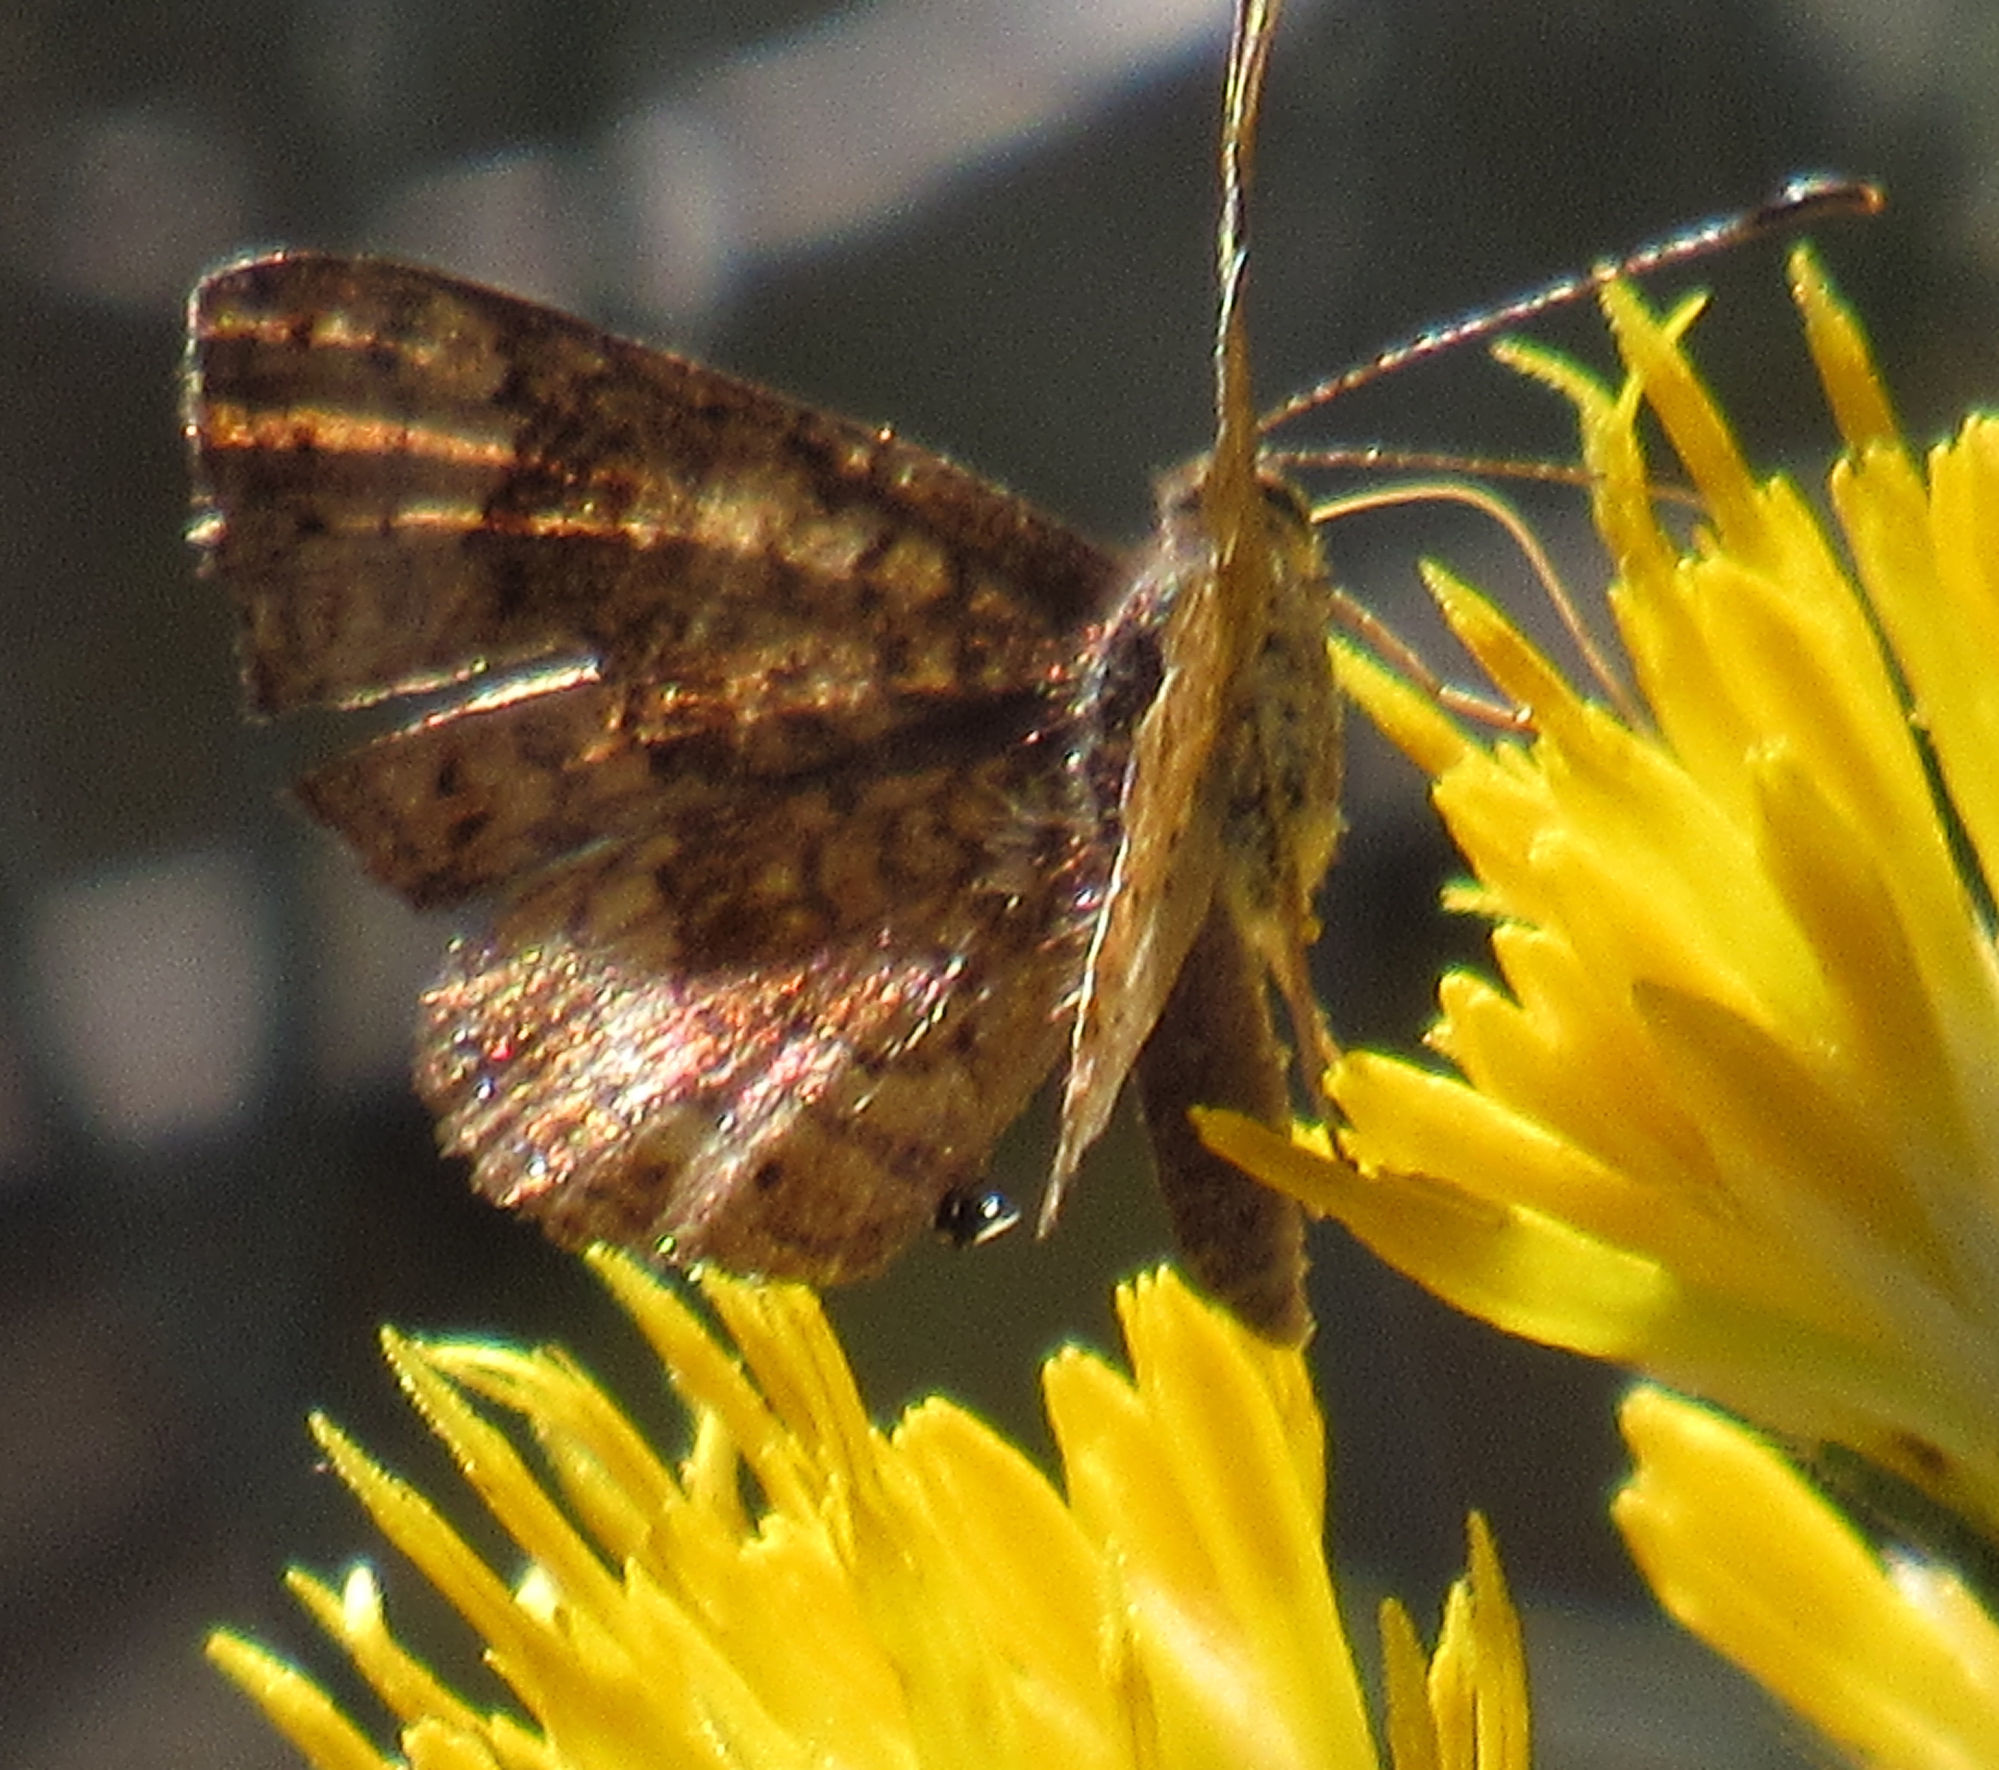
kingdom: Animalia
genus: Calephelis
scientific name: Calephelis nemesis
